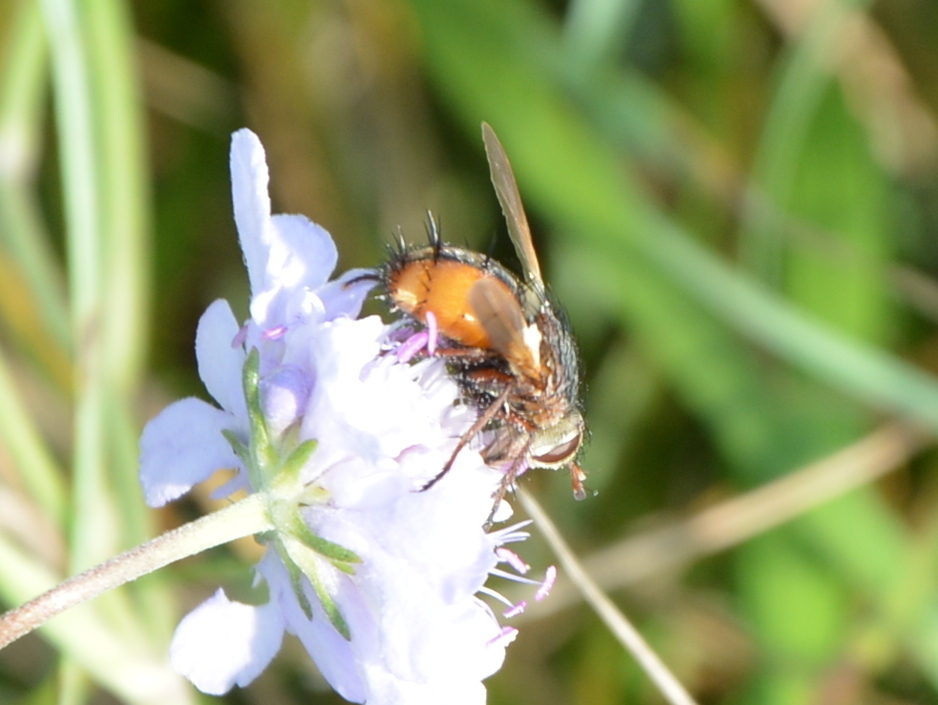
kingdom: Animalia
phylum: Arthropoda
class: Insecta
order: Diptera
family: Tachinidae
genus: Tachina
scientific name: Tachina fera
